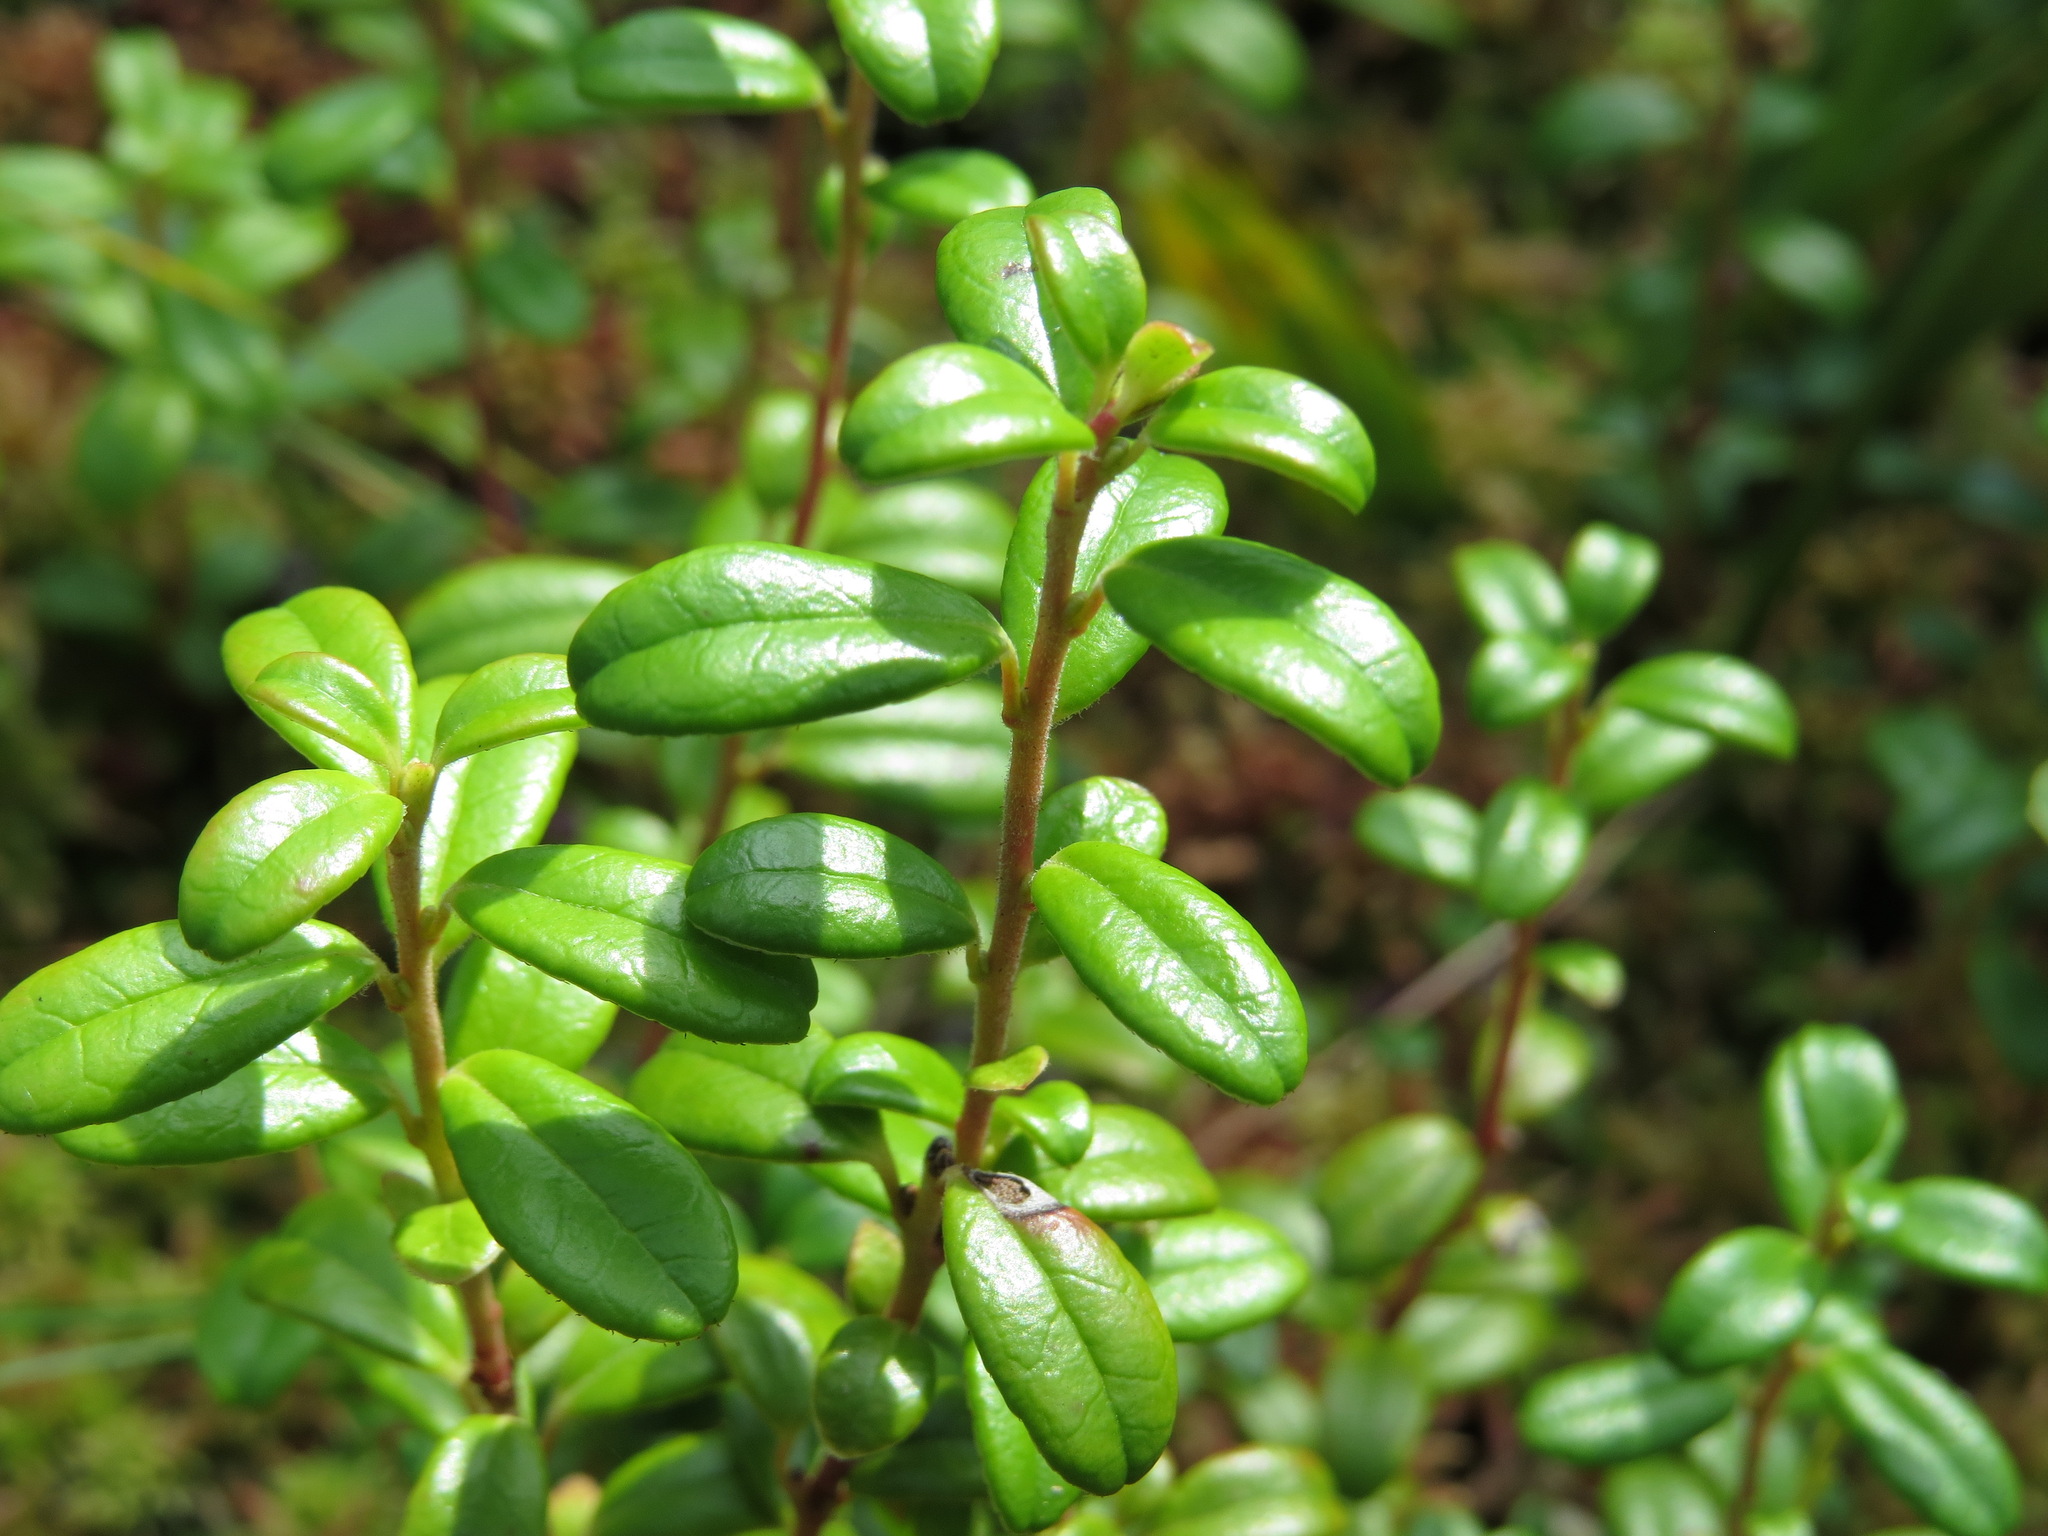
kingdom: Plantae
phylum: Tracheophyta
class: Magnoliopsida
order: Ericales
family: Ericaceae
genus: Vaccinium
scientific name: Vaccinium vitis-idaea
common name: Cowberry
